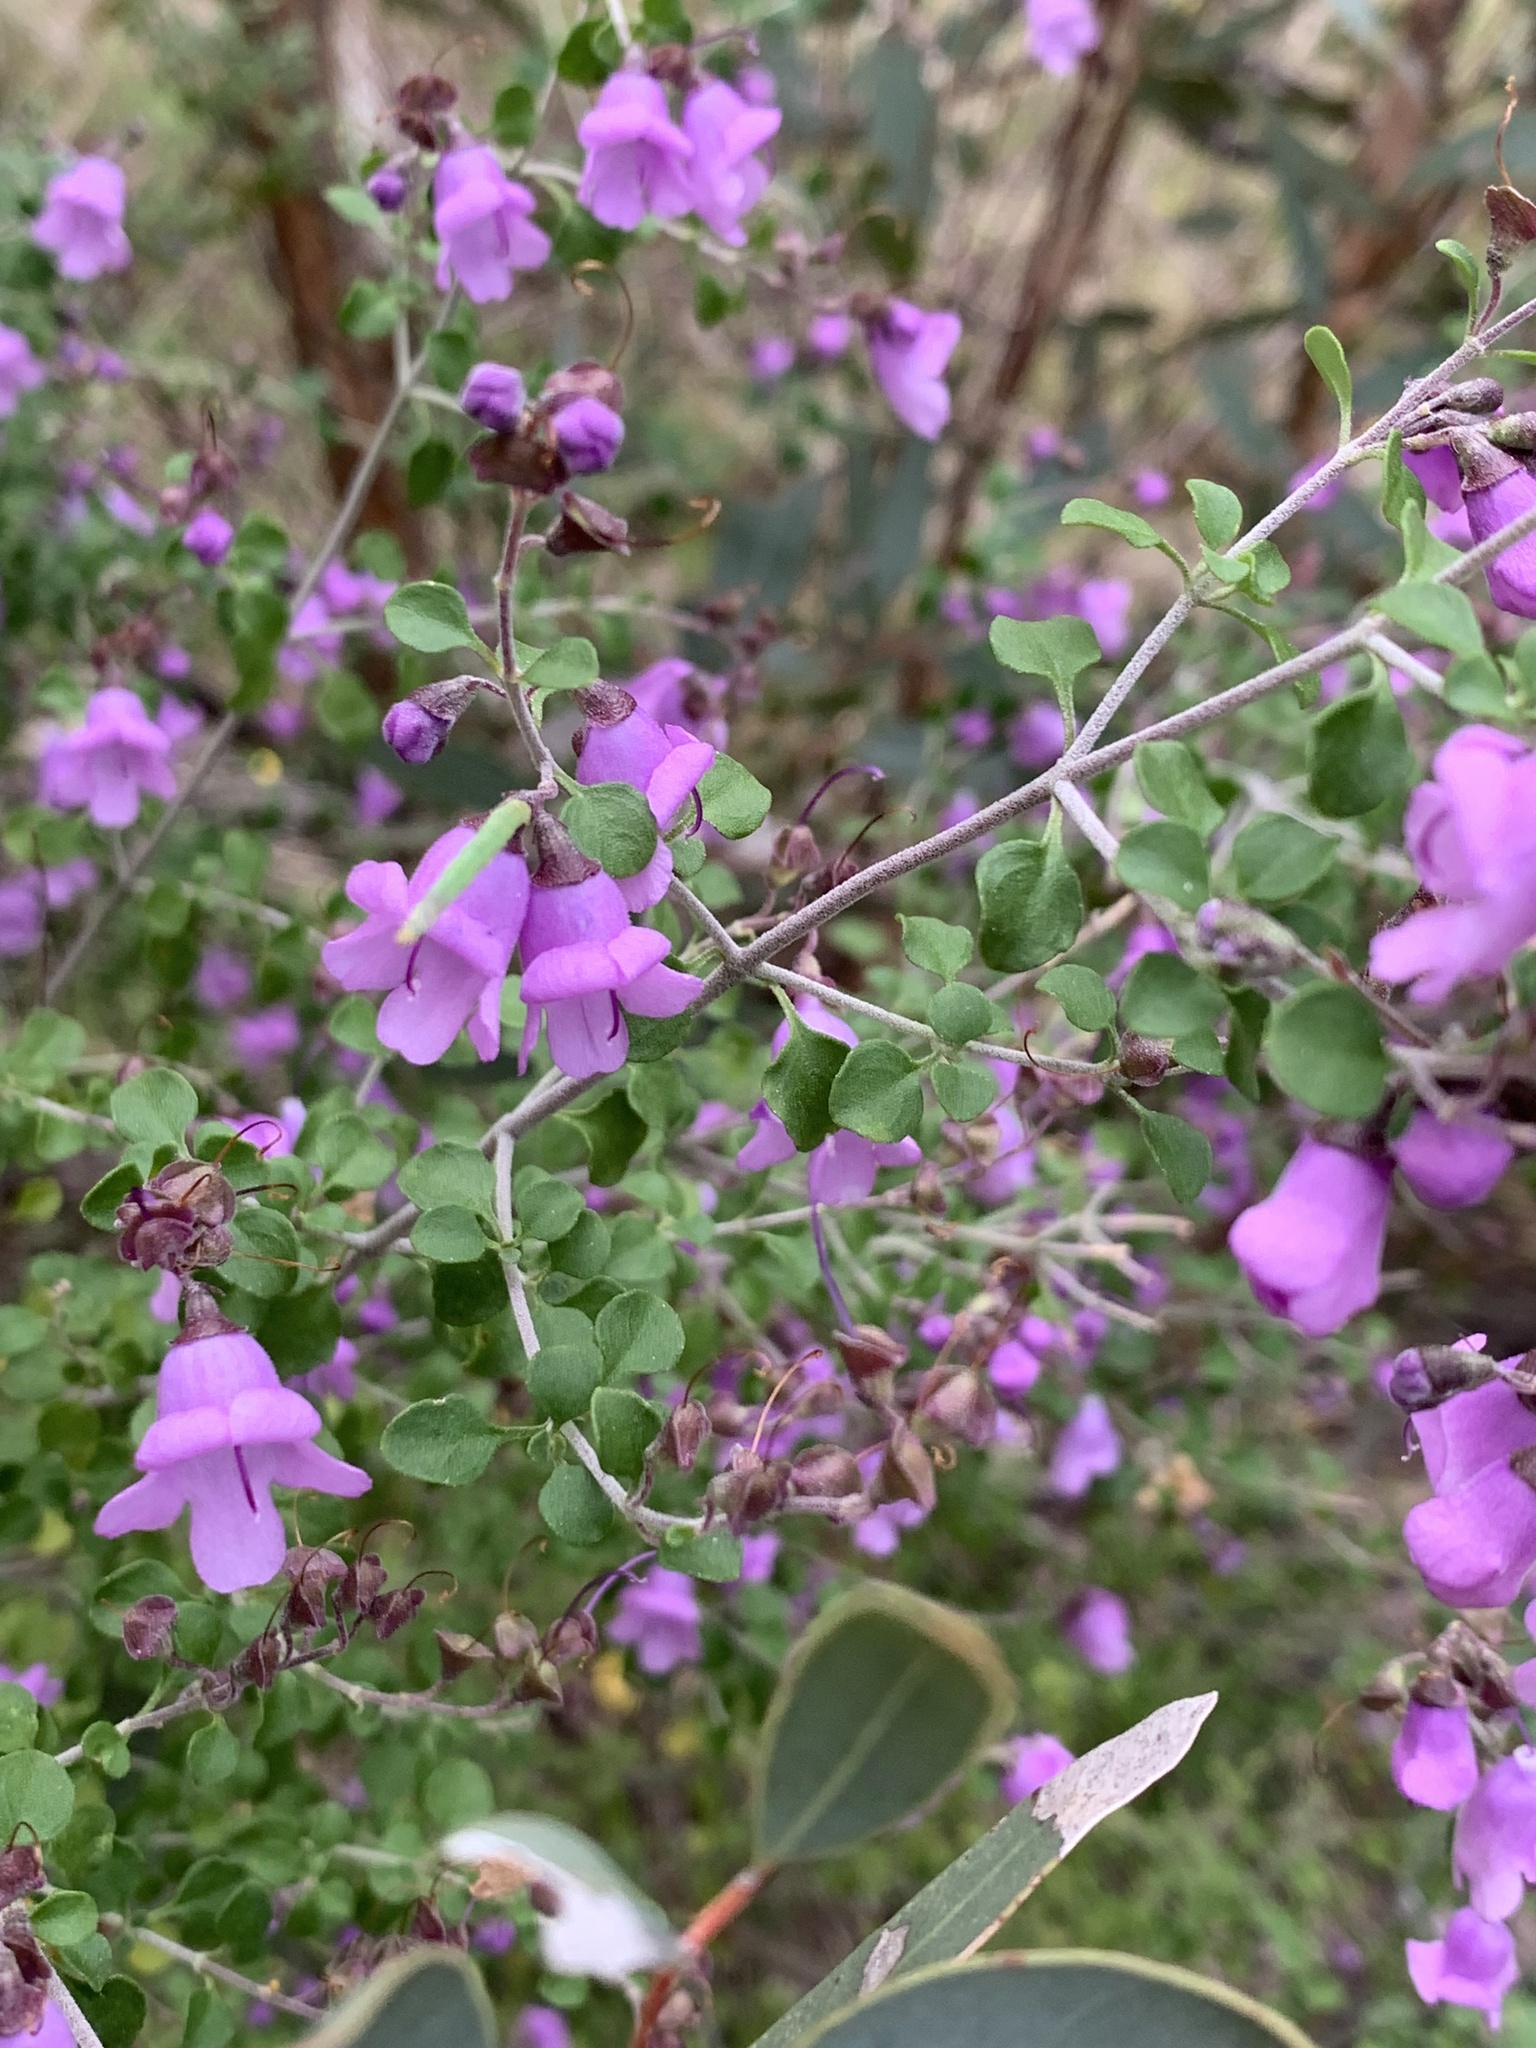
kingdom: Plantae
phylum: Tracheophyta
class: Magnoliopsida
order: Lamiales
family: Lamiaceae
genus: Prostanthera
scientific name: Prostanthera rotundifolia
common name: Round-leaf mintbush
